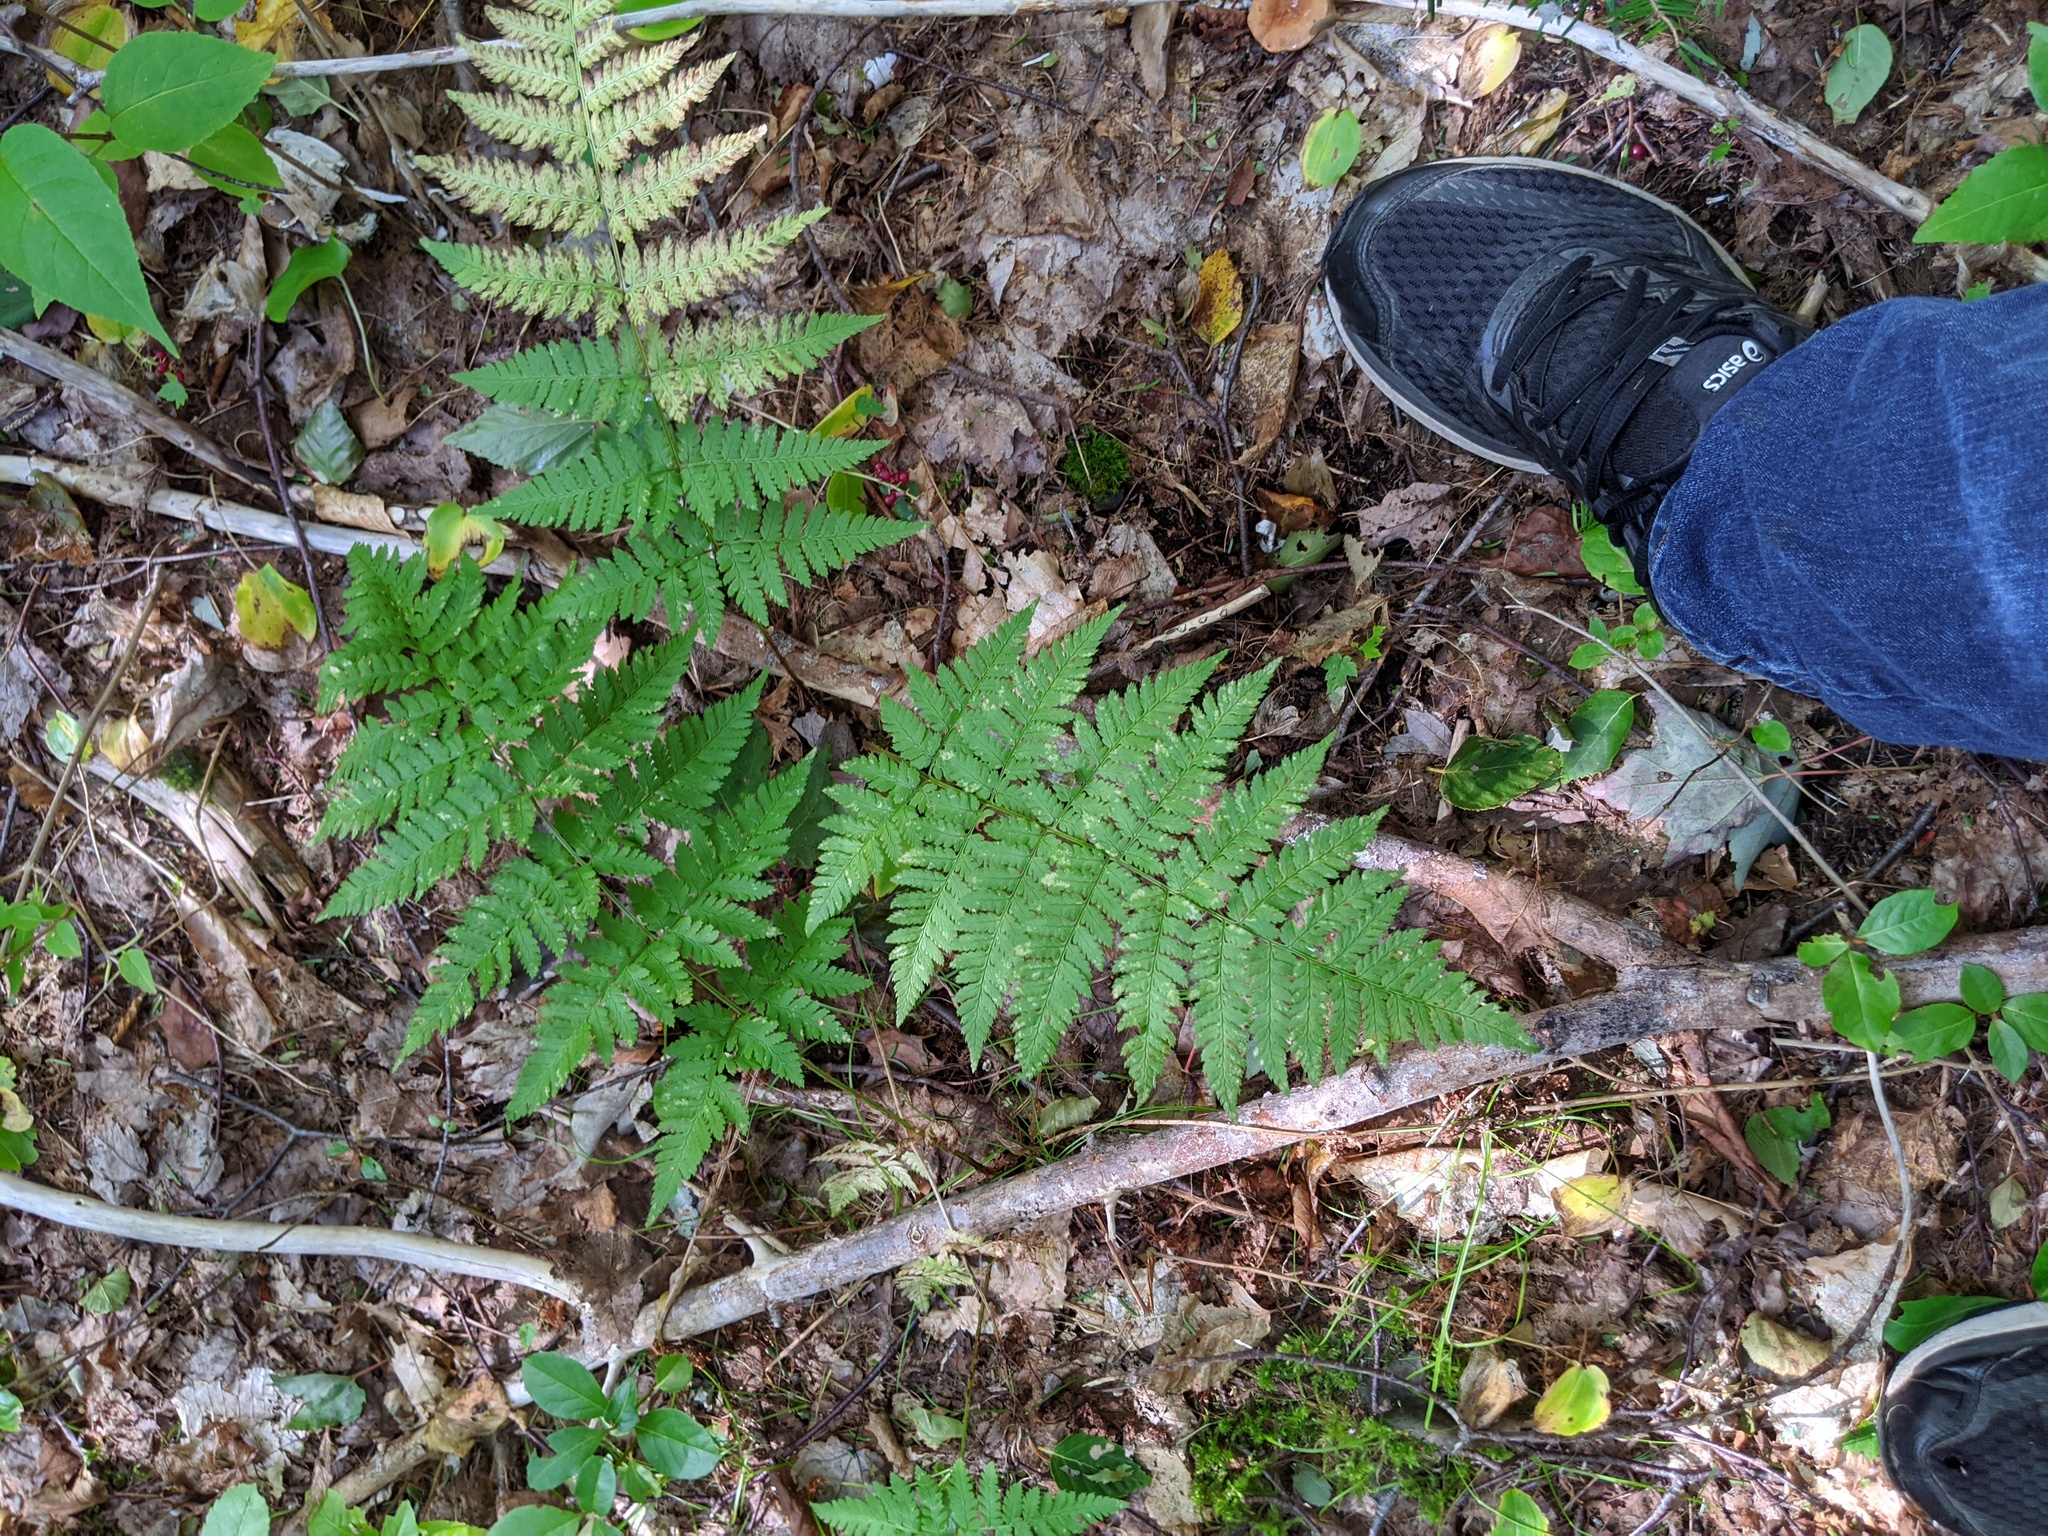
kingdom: Plantae
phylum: Tracheophyta
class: Polypodiopsida
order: Polypodiales
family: Dryopteridaceae
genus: Dryopteris
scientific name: Dryopteris carthusiana
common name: Narrow buckler-fern
